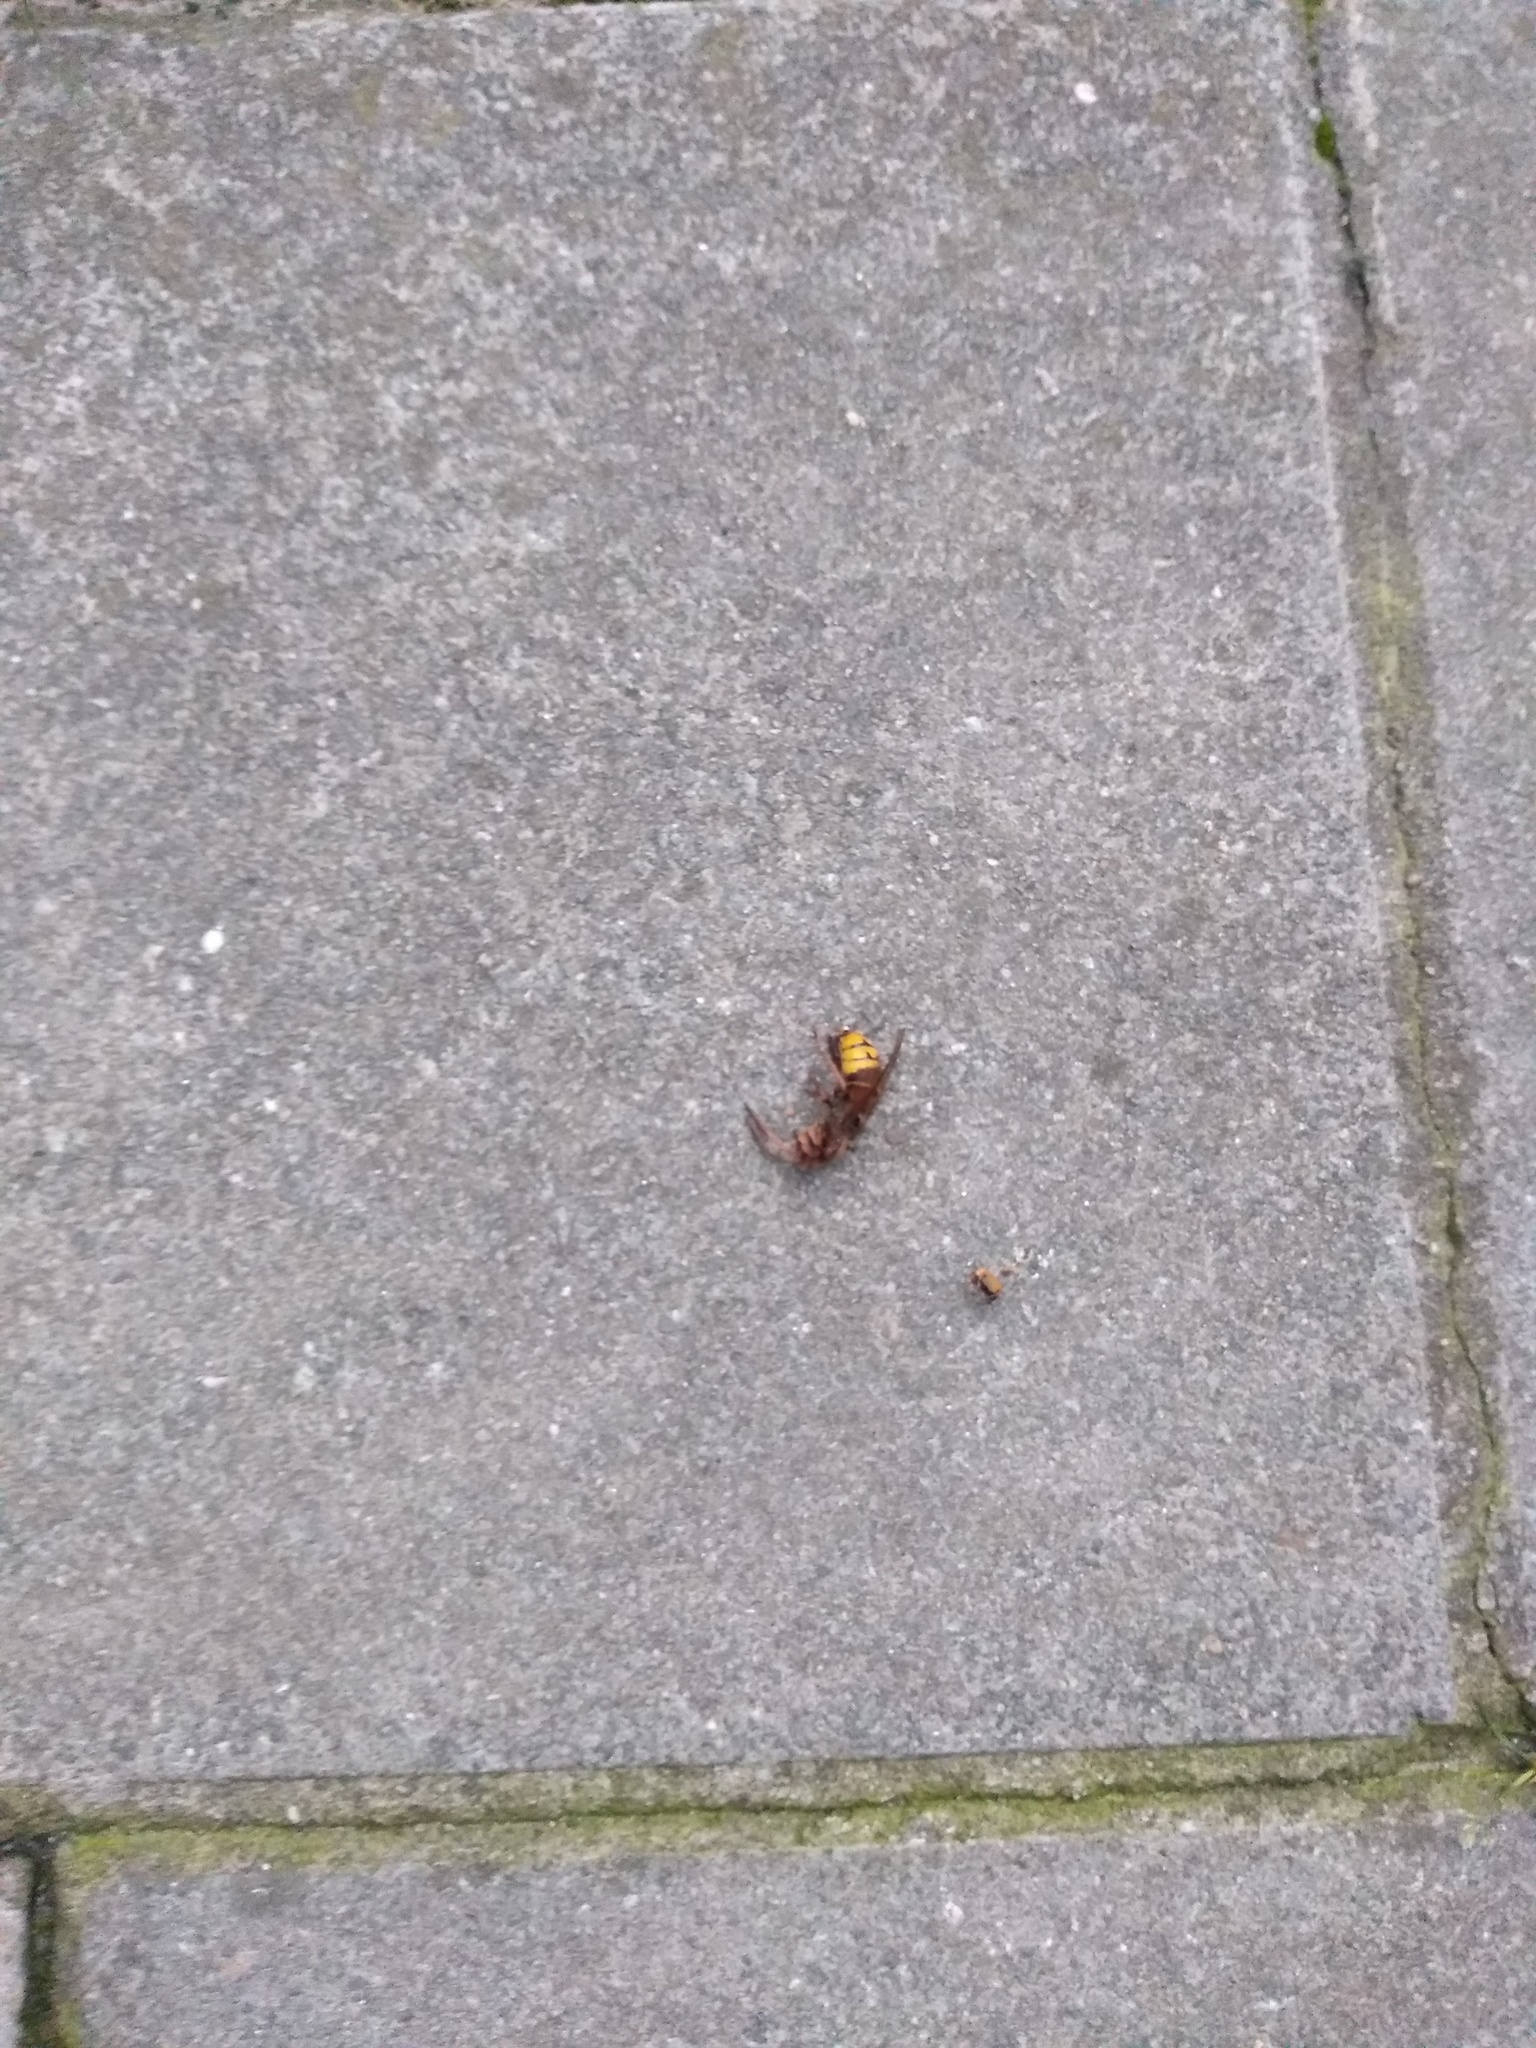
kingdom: Animalia
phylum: Arthropoda
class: Insecta
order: Hymenoptera
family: Vespidae
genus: Vespa
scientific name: Vespa crabro
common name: Hornet
